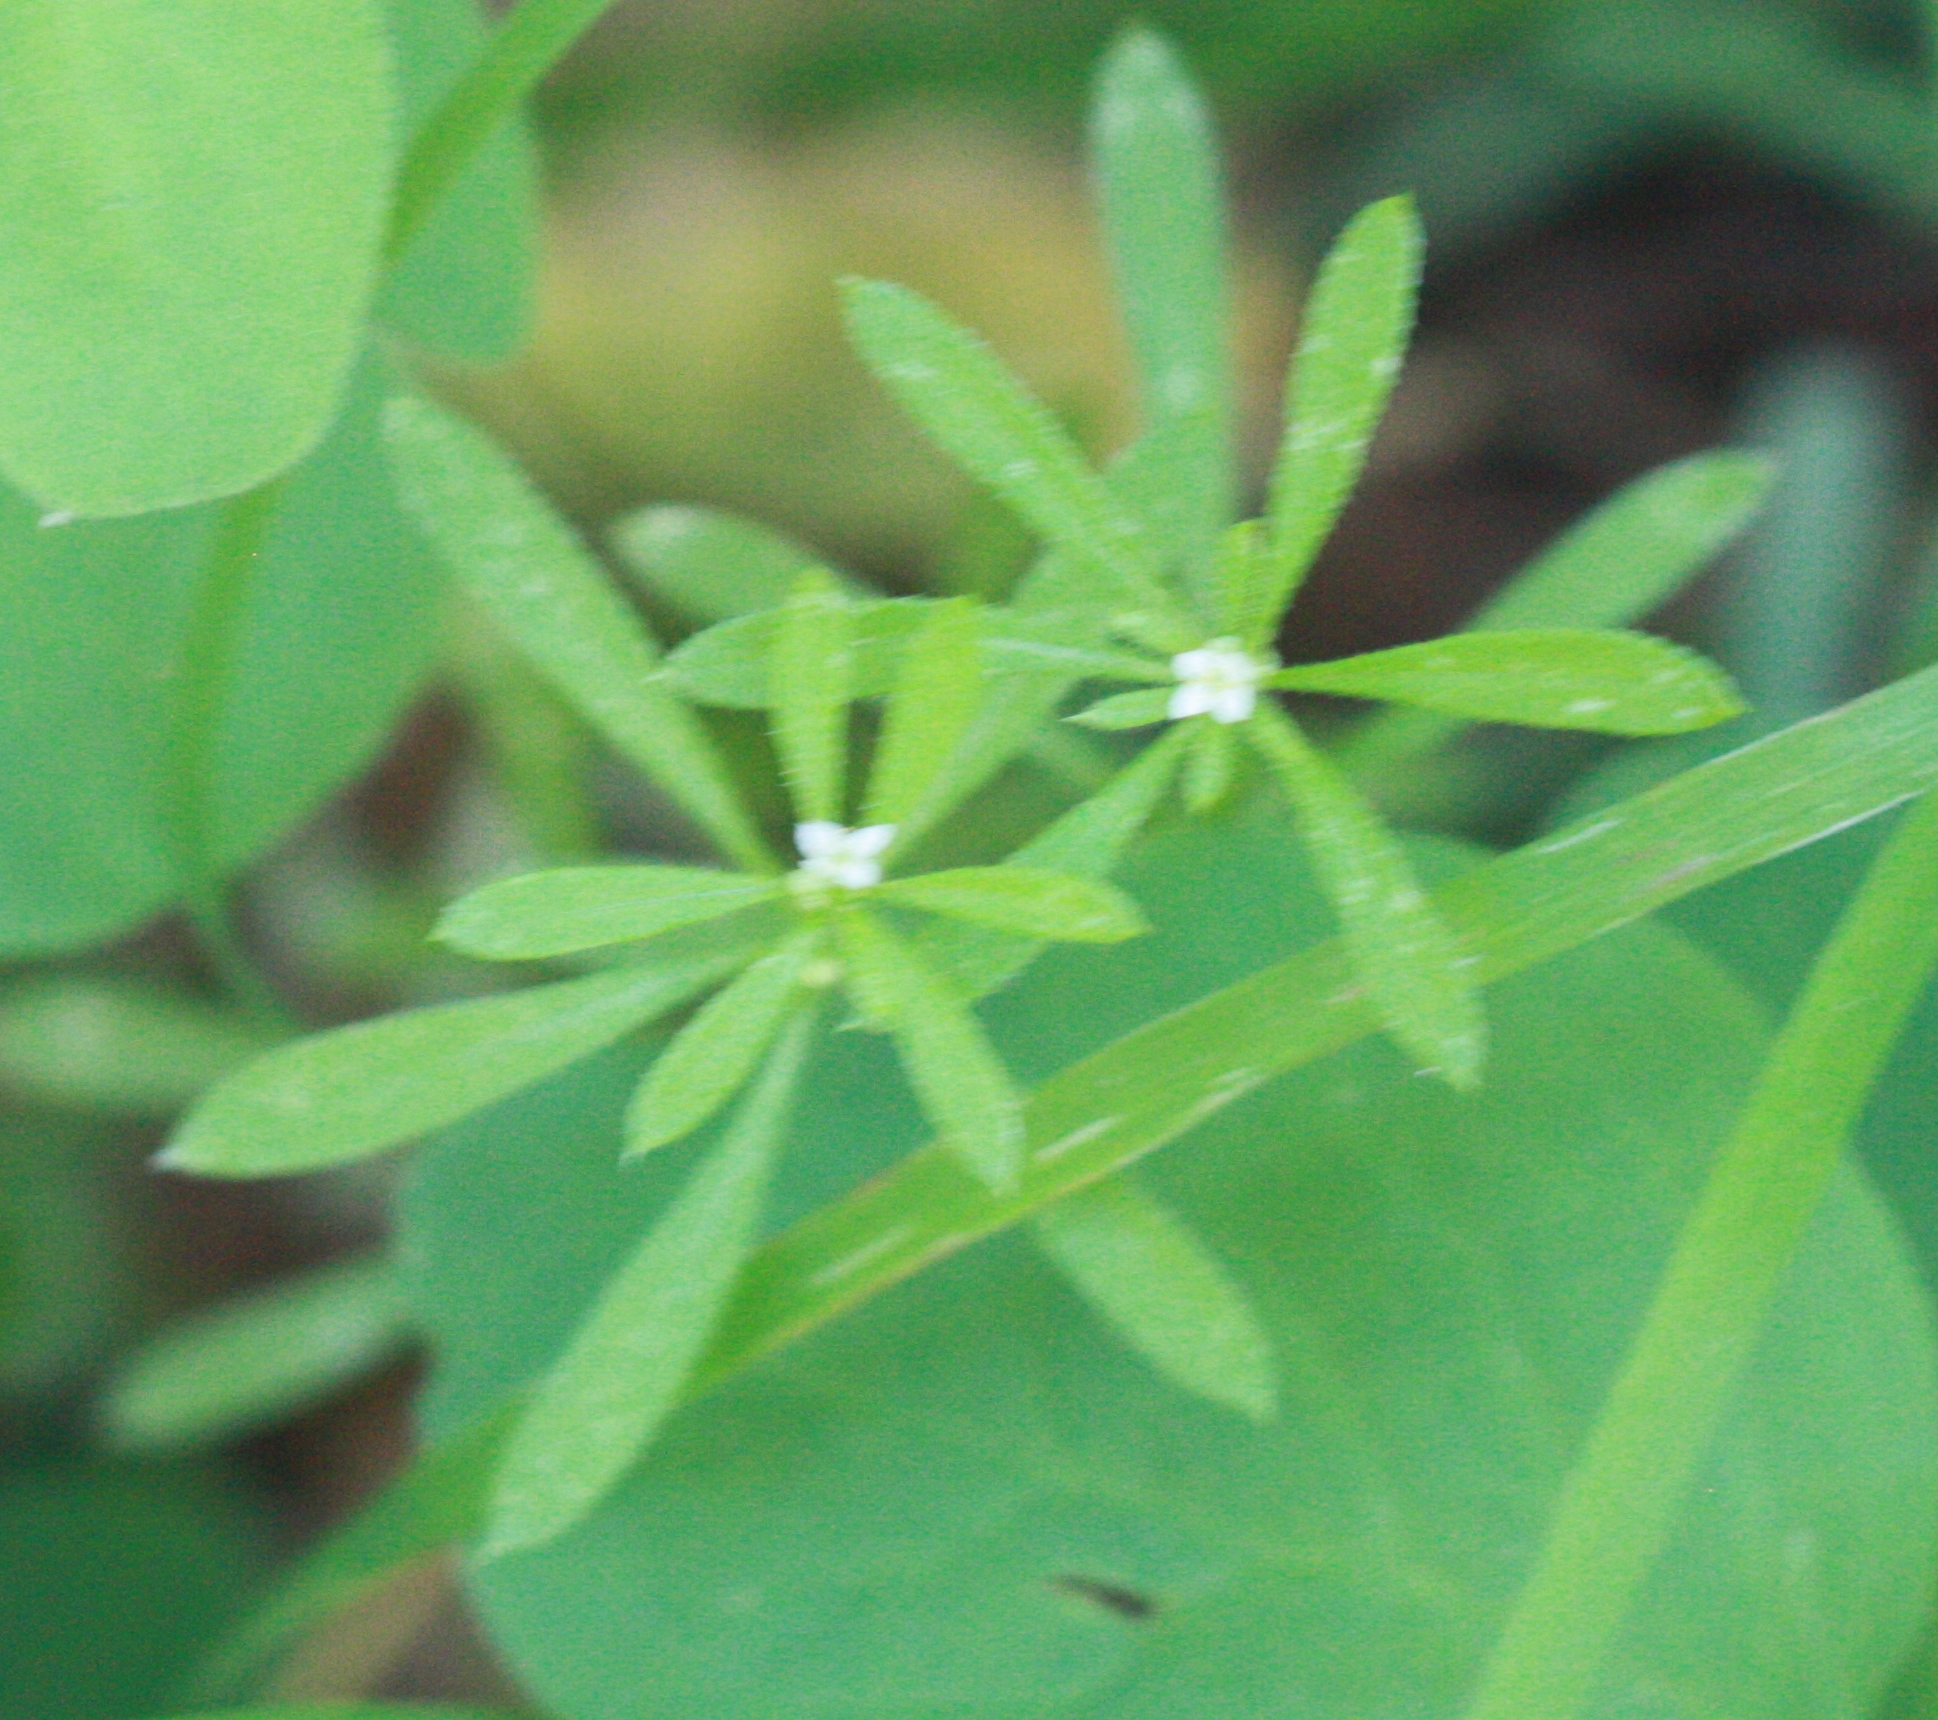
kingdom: Plantae
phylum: Tracheophyta
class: Magnoliopsida
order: Gentianales
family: Rubiaceae
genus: Galium
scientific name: Galium aparine
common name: Cleavers
